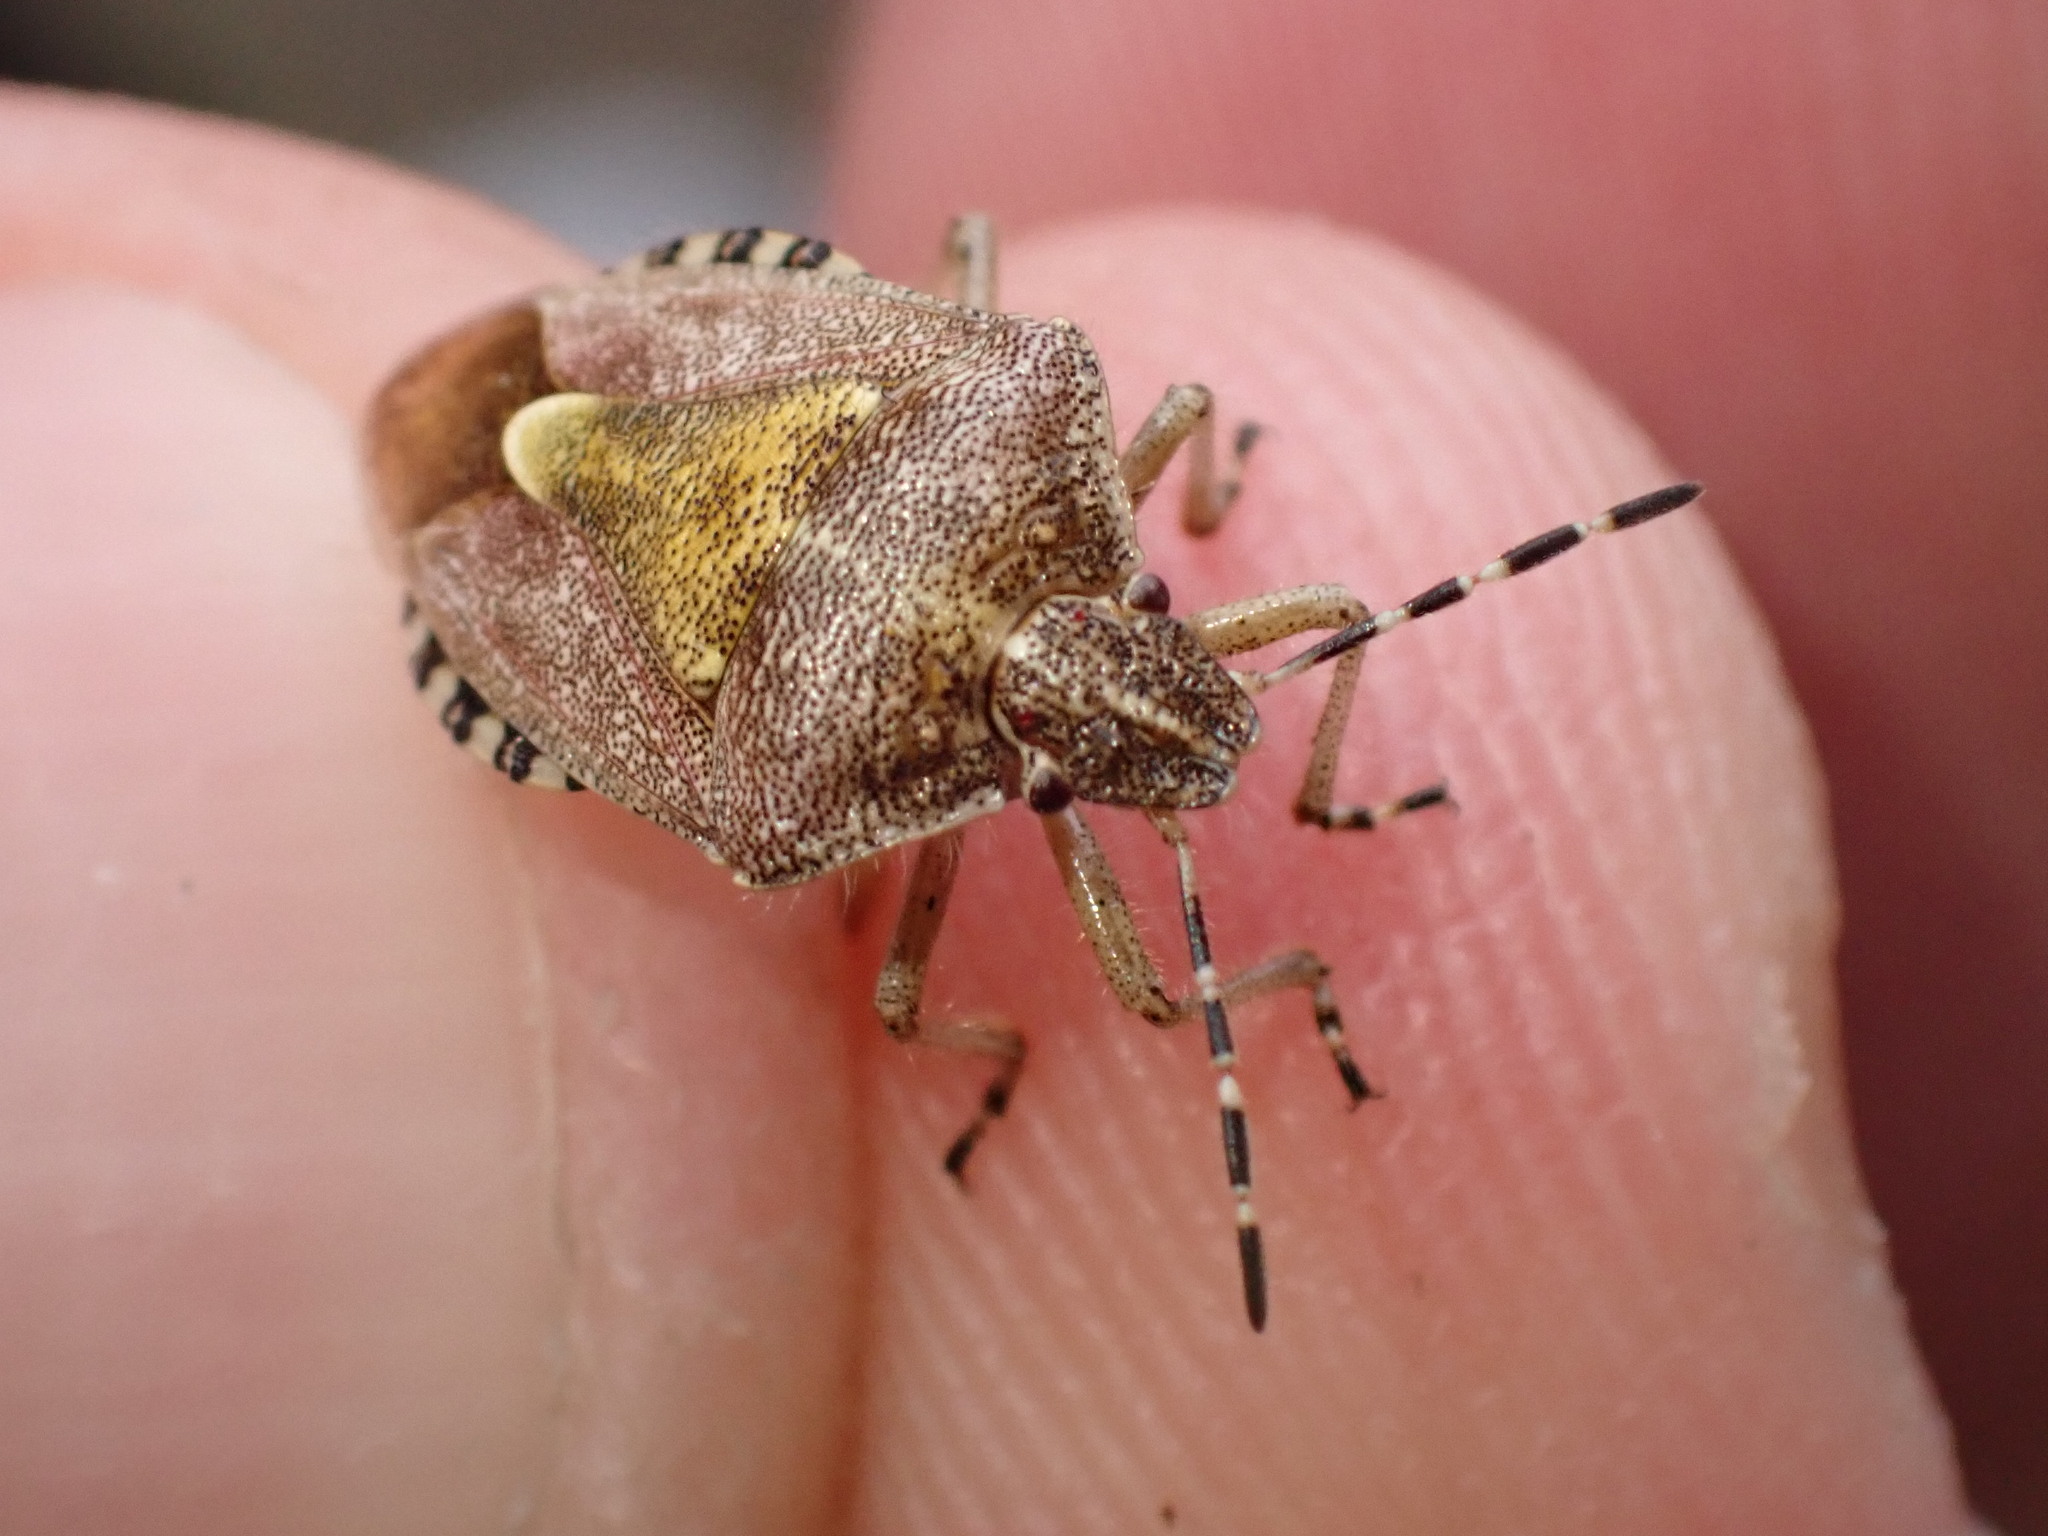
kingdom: Animalia
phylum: Arthropoda
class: Insecta
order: Hemiptera
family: Pentatomidae
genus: Dolycoris
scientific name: Dolycoris baccarum
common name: Sloe bug
